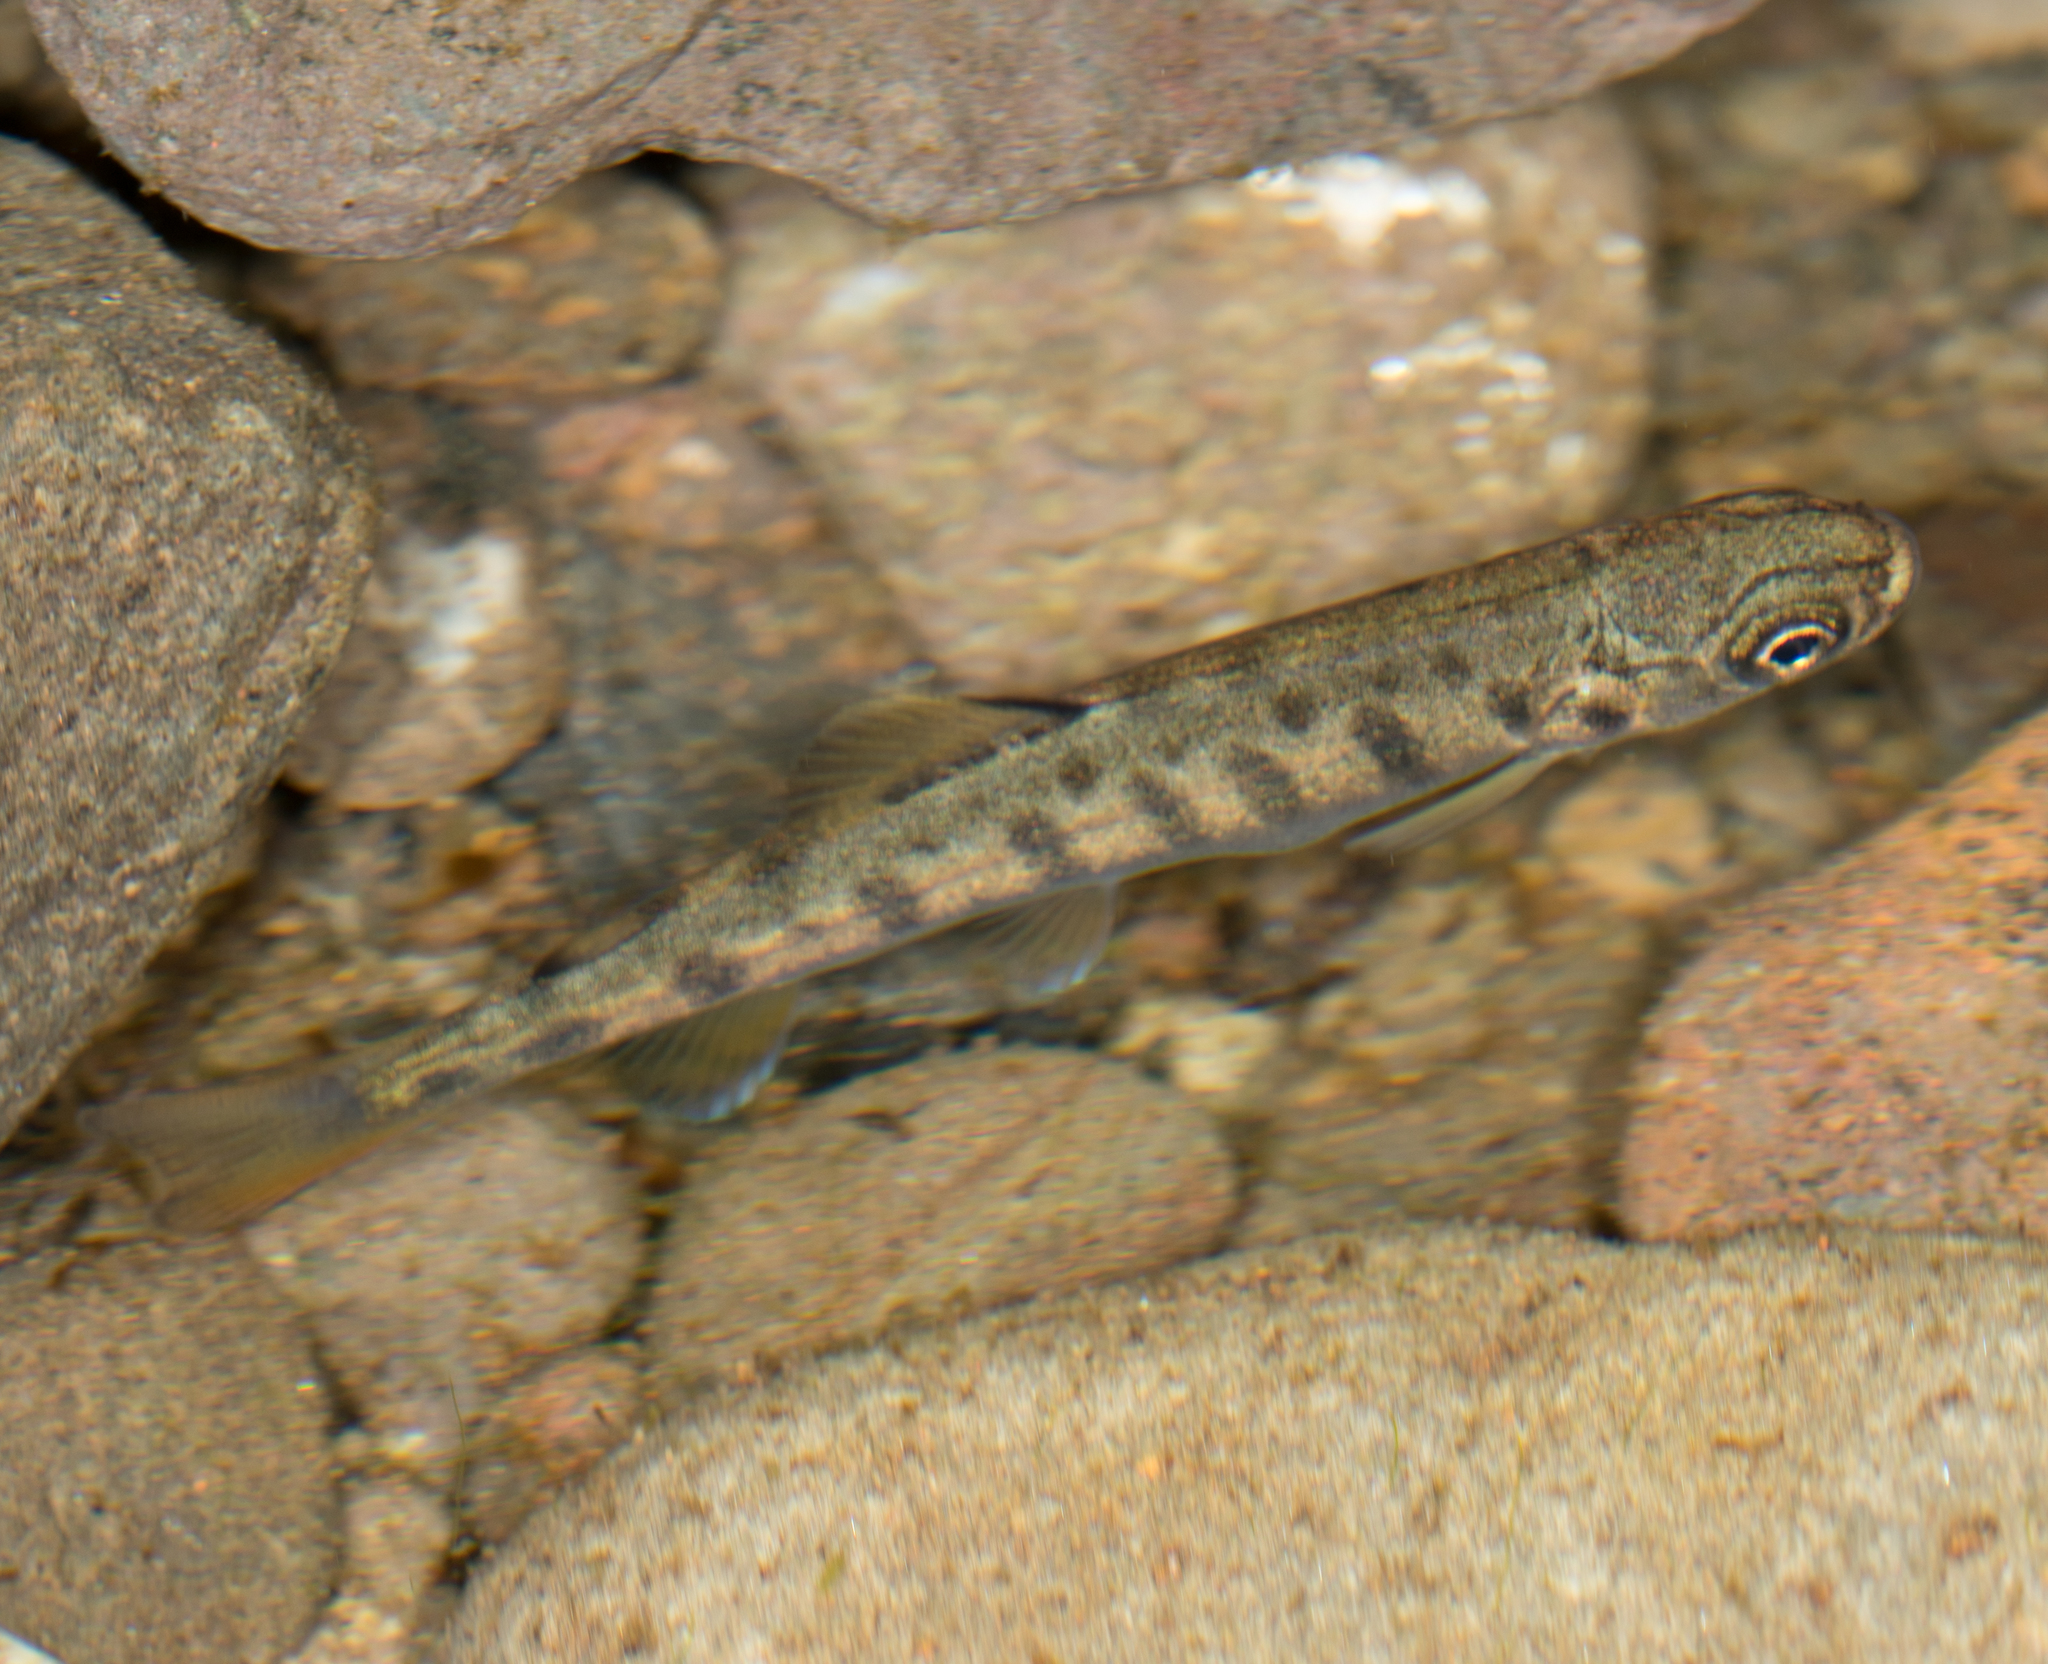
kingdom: Animalia
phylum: Chordata
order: Salmoniformes
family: Salmonidae
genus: Oncorhynchus
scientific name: Oncorhynchus kisutch
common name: Coho salmon
